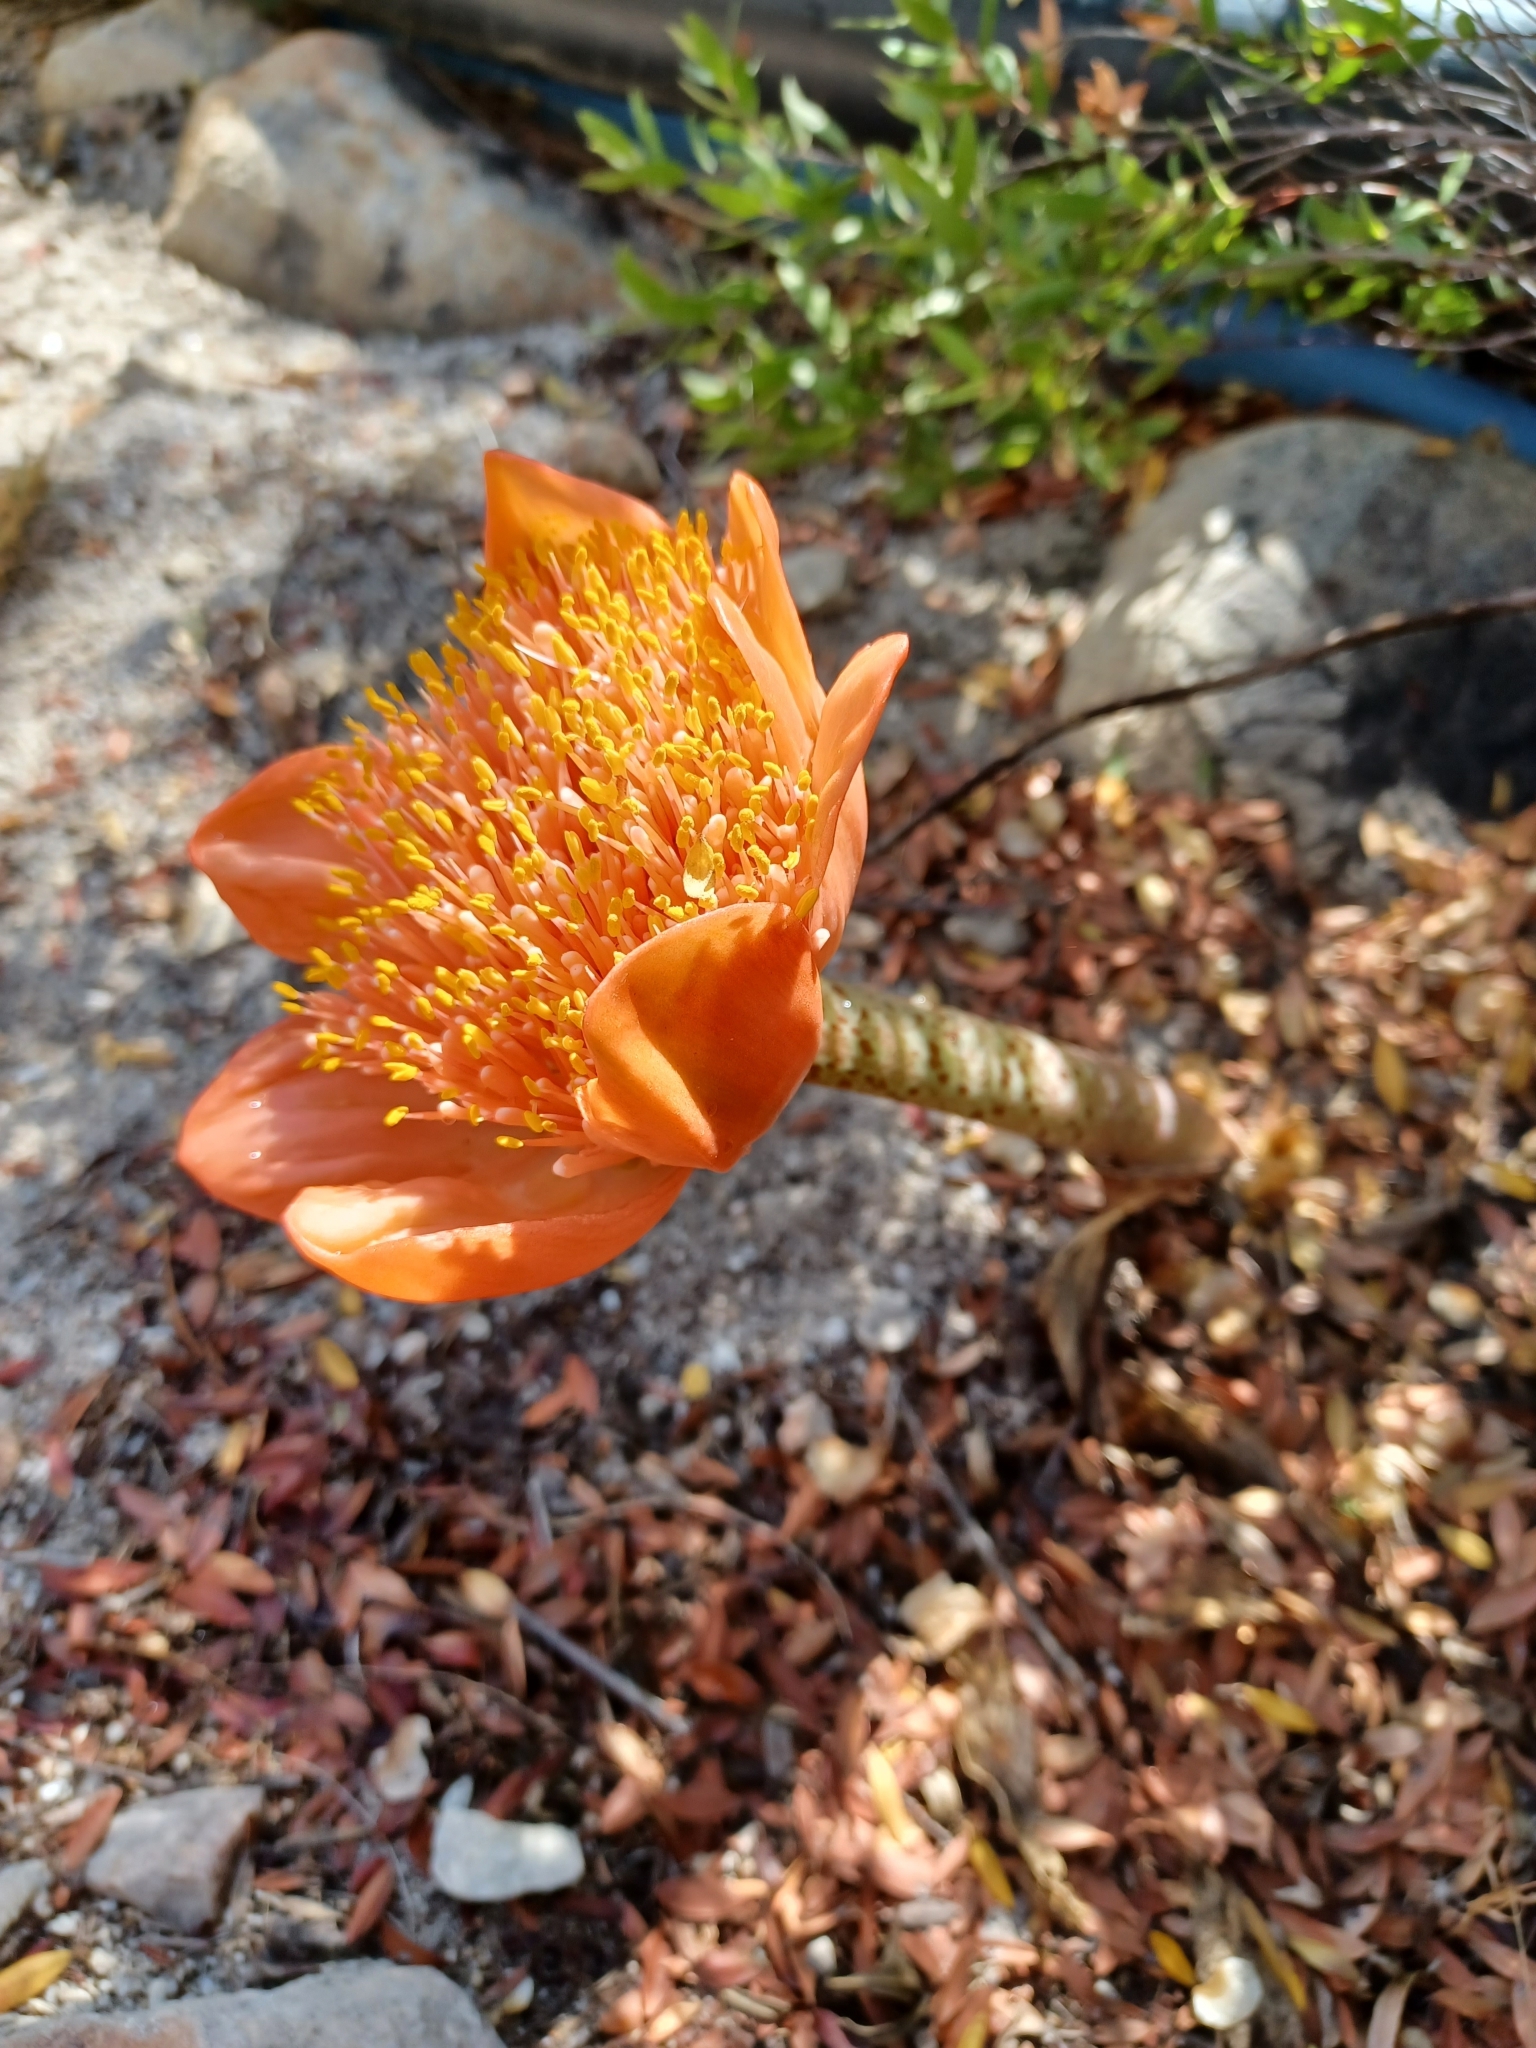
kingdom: Plantae
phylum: Tracheophyta
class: Liliopsida
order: Asparagales
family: Amaryllidaceae
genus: Haemanthus
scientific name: Haemanthus coccineus
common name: Cape-tulip
